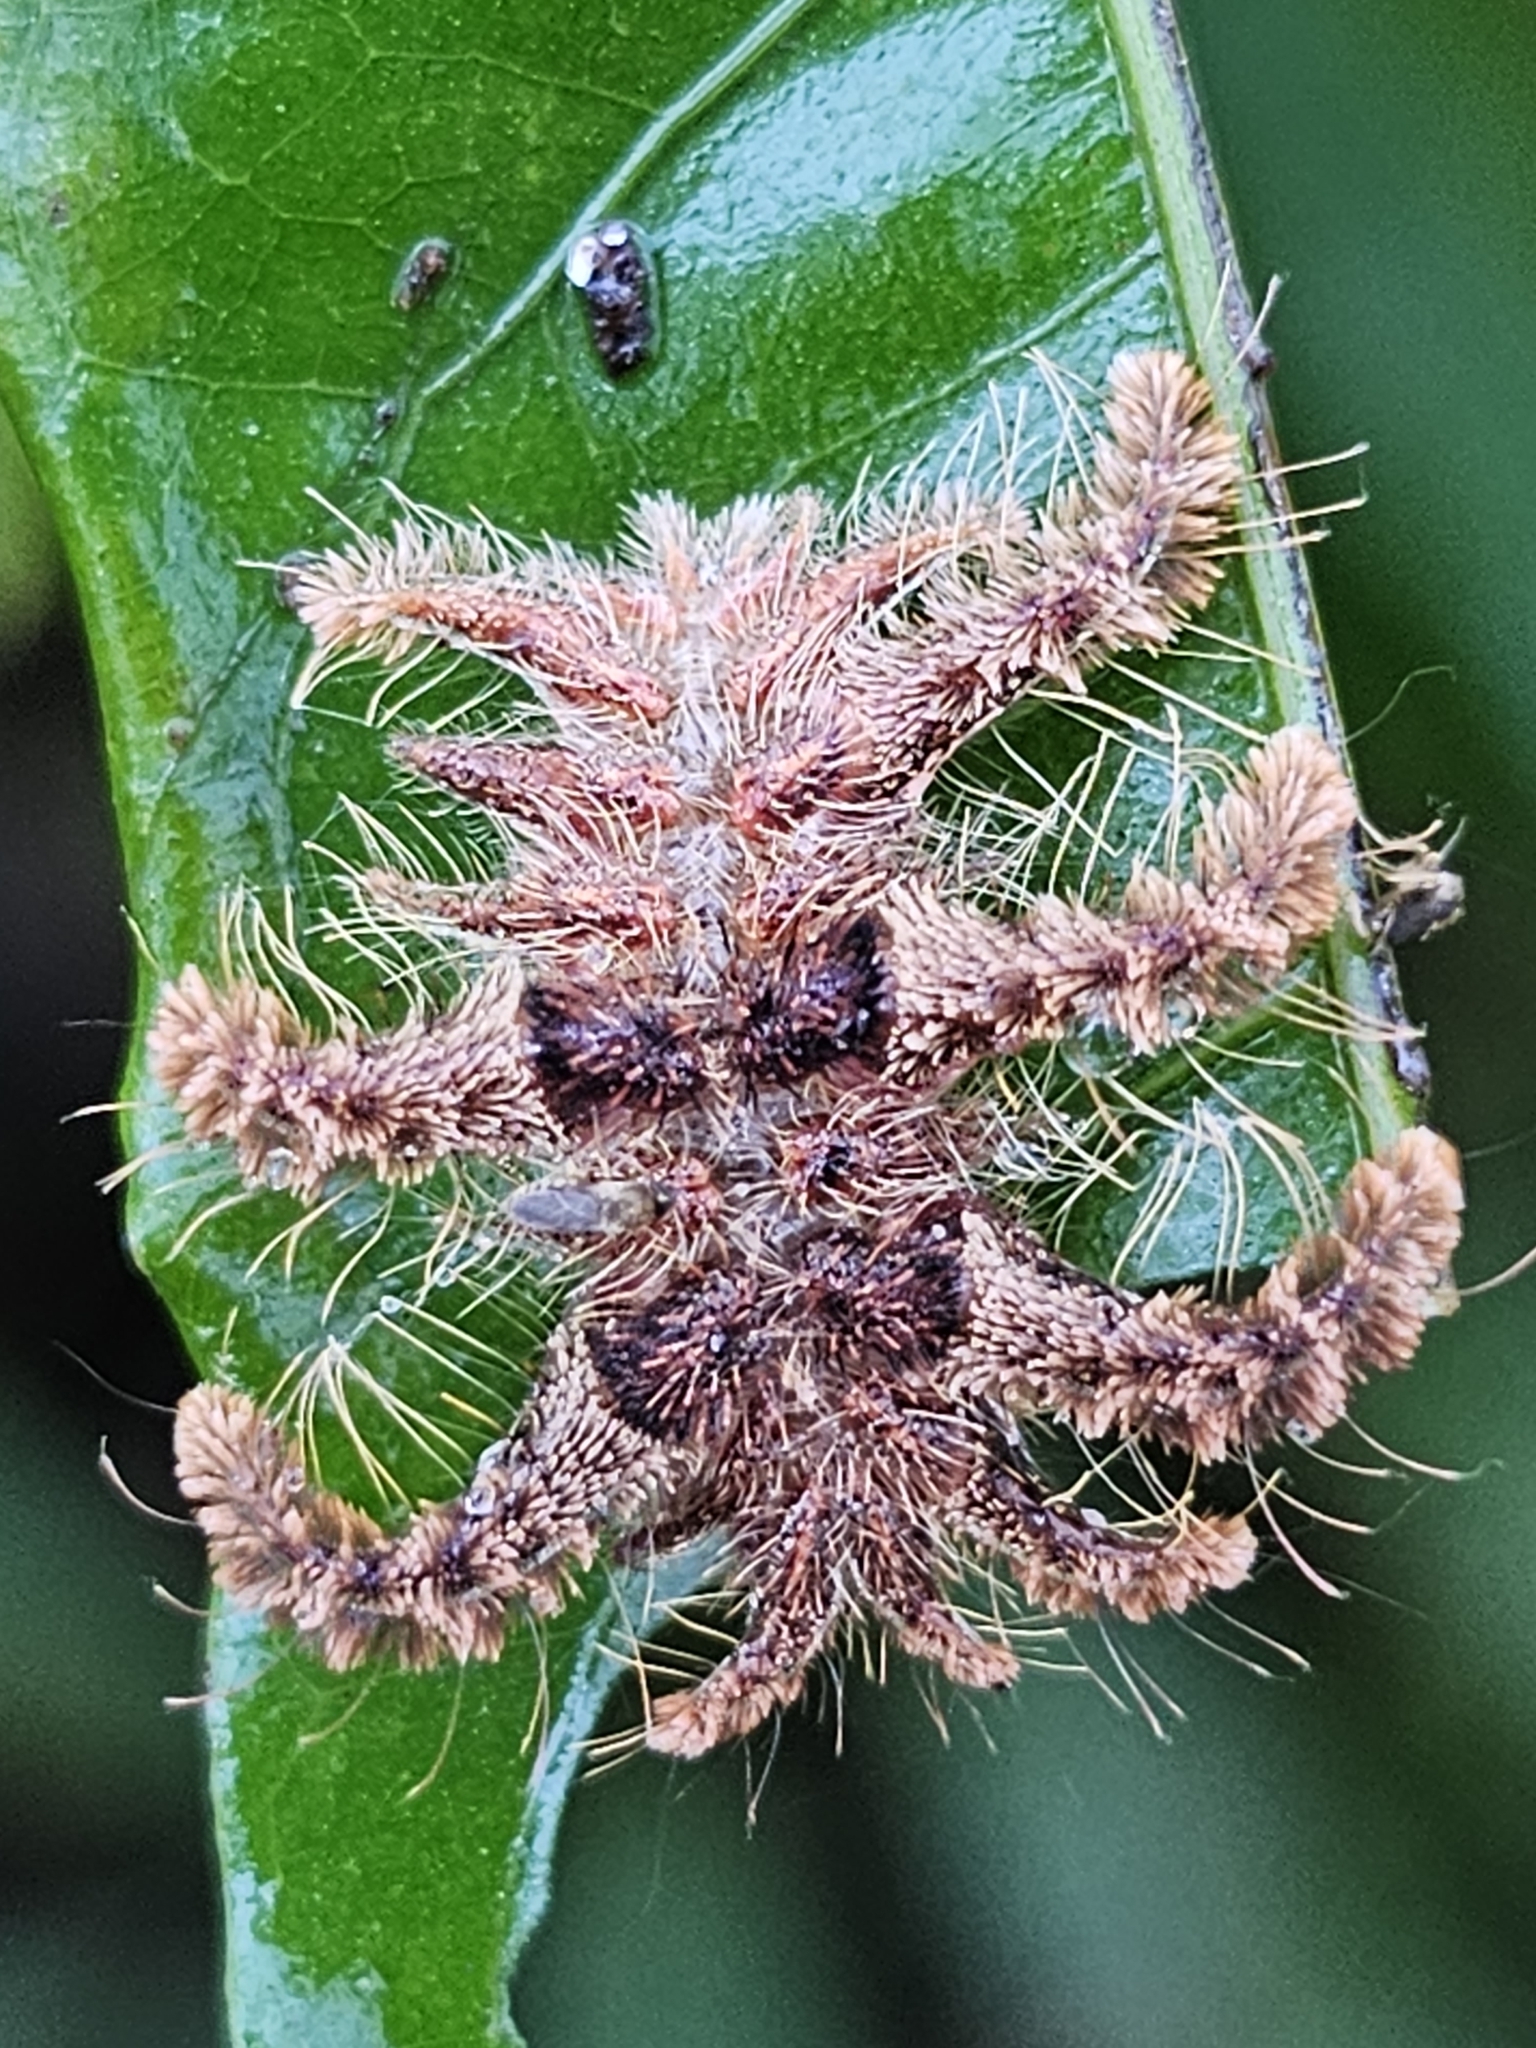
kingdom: Animalia
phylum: Arthropoda
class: Insecta
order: Lepidoptera
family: Limacodidae
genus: Phobetron
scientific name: Phobetron hipparchia
